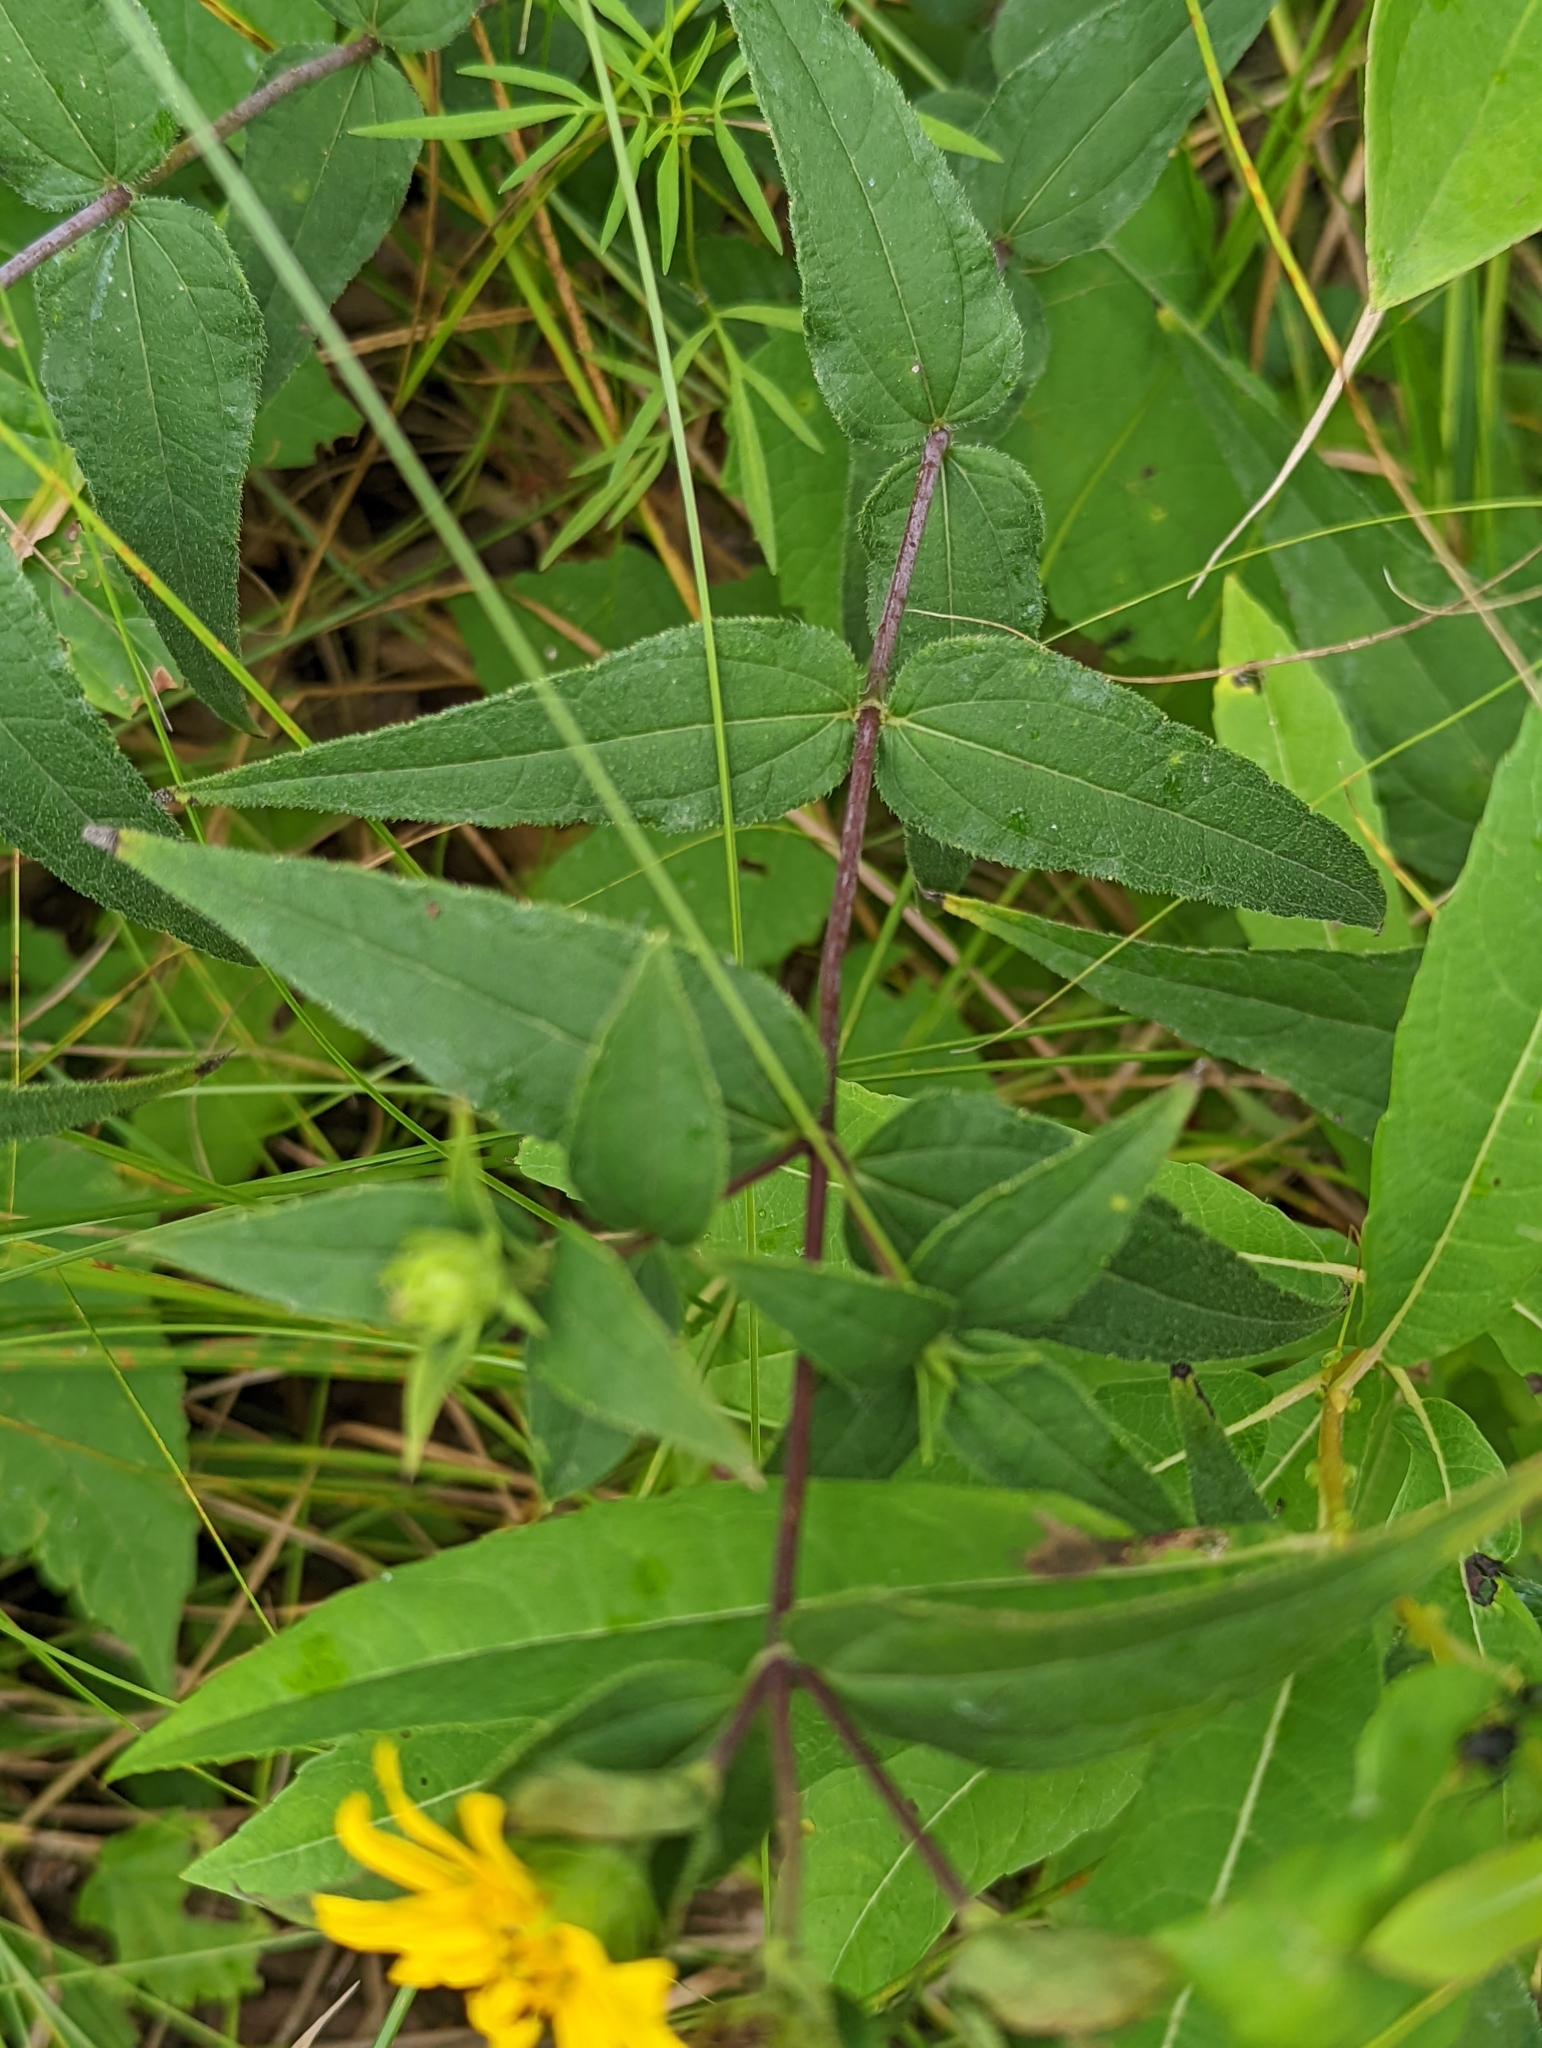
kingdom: Plantae
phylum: Tracheophyta
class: Magnoliopsida
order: Asterales
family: Asteraceae
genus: Helianthus
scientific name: Helianthus hirsutus
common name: Hairy sunflower
